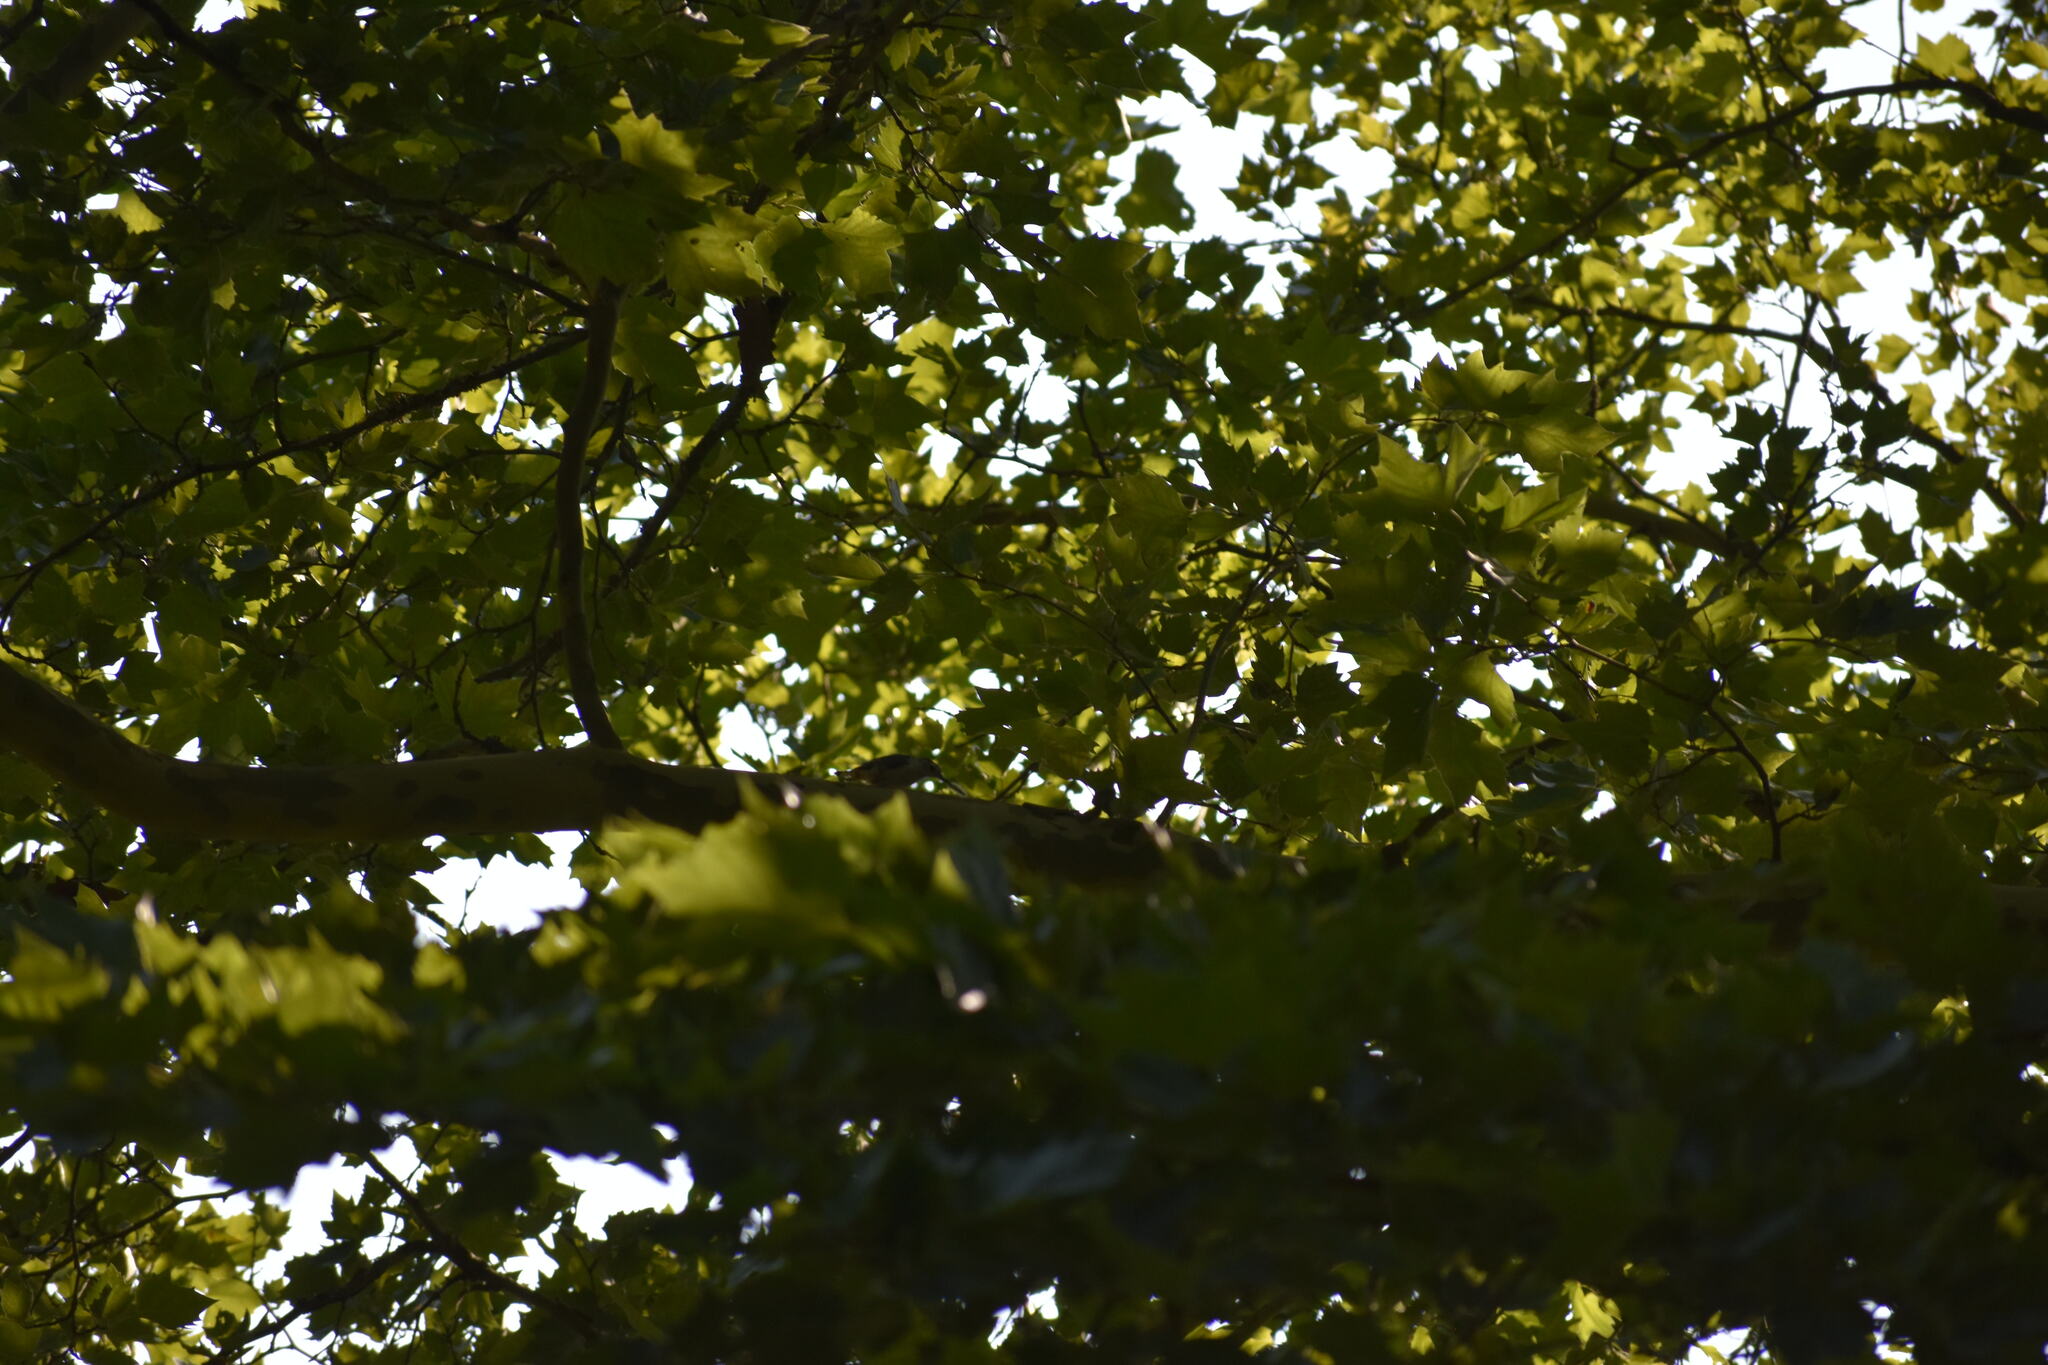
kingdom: Animalia
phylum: Chordata
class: Aves
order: Passeriformes
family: Sittidae
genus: Sitta
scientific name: Sitta carolinensis
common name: White-breasted nuthatch
